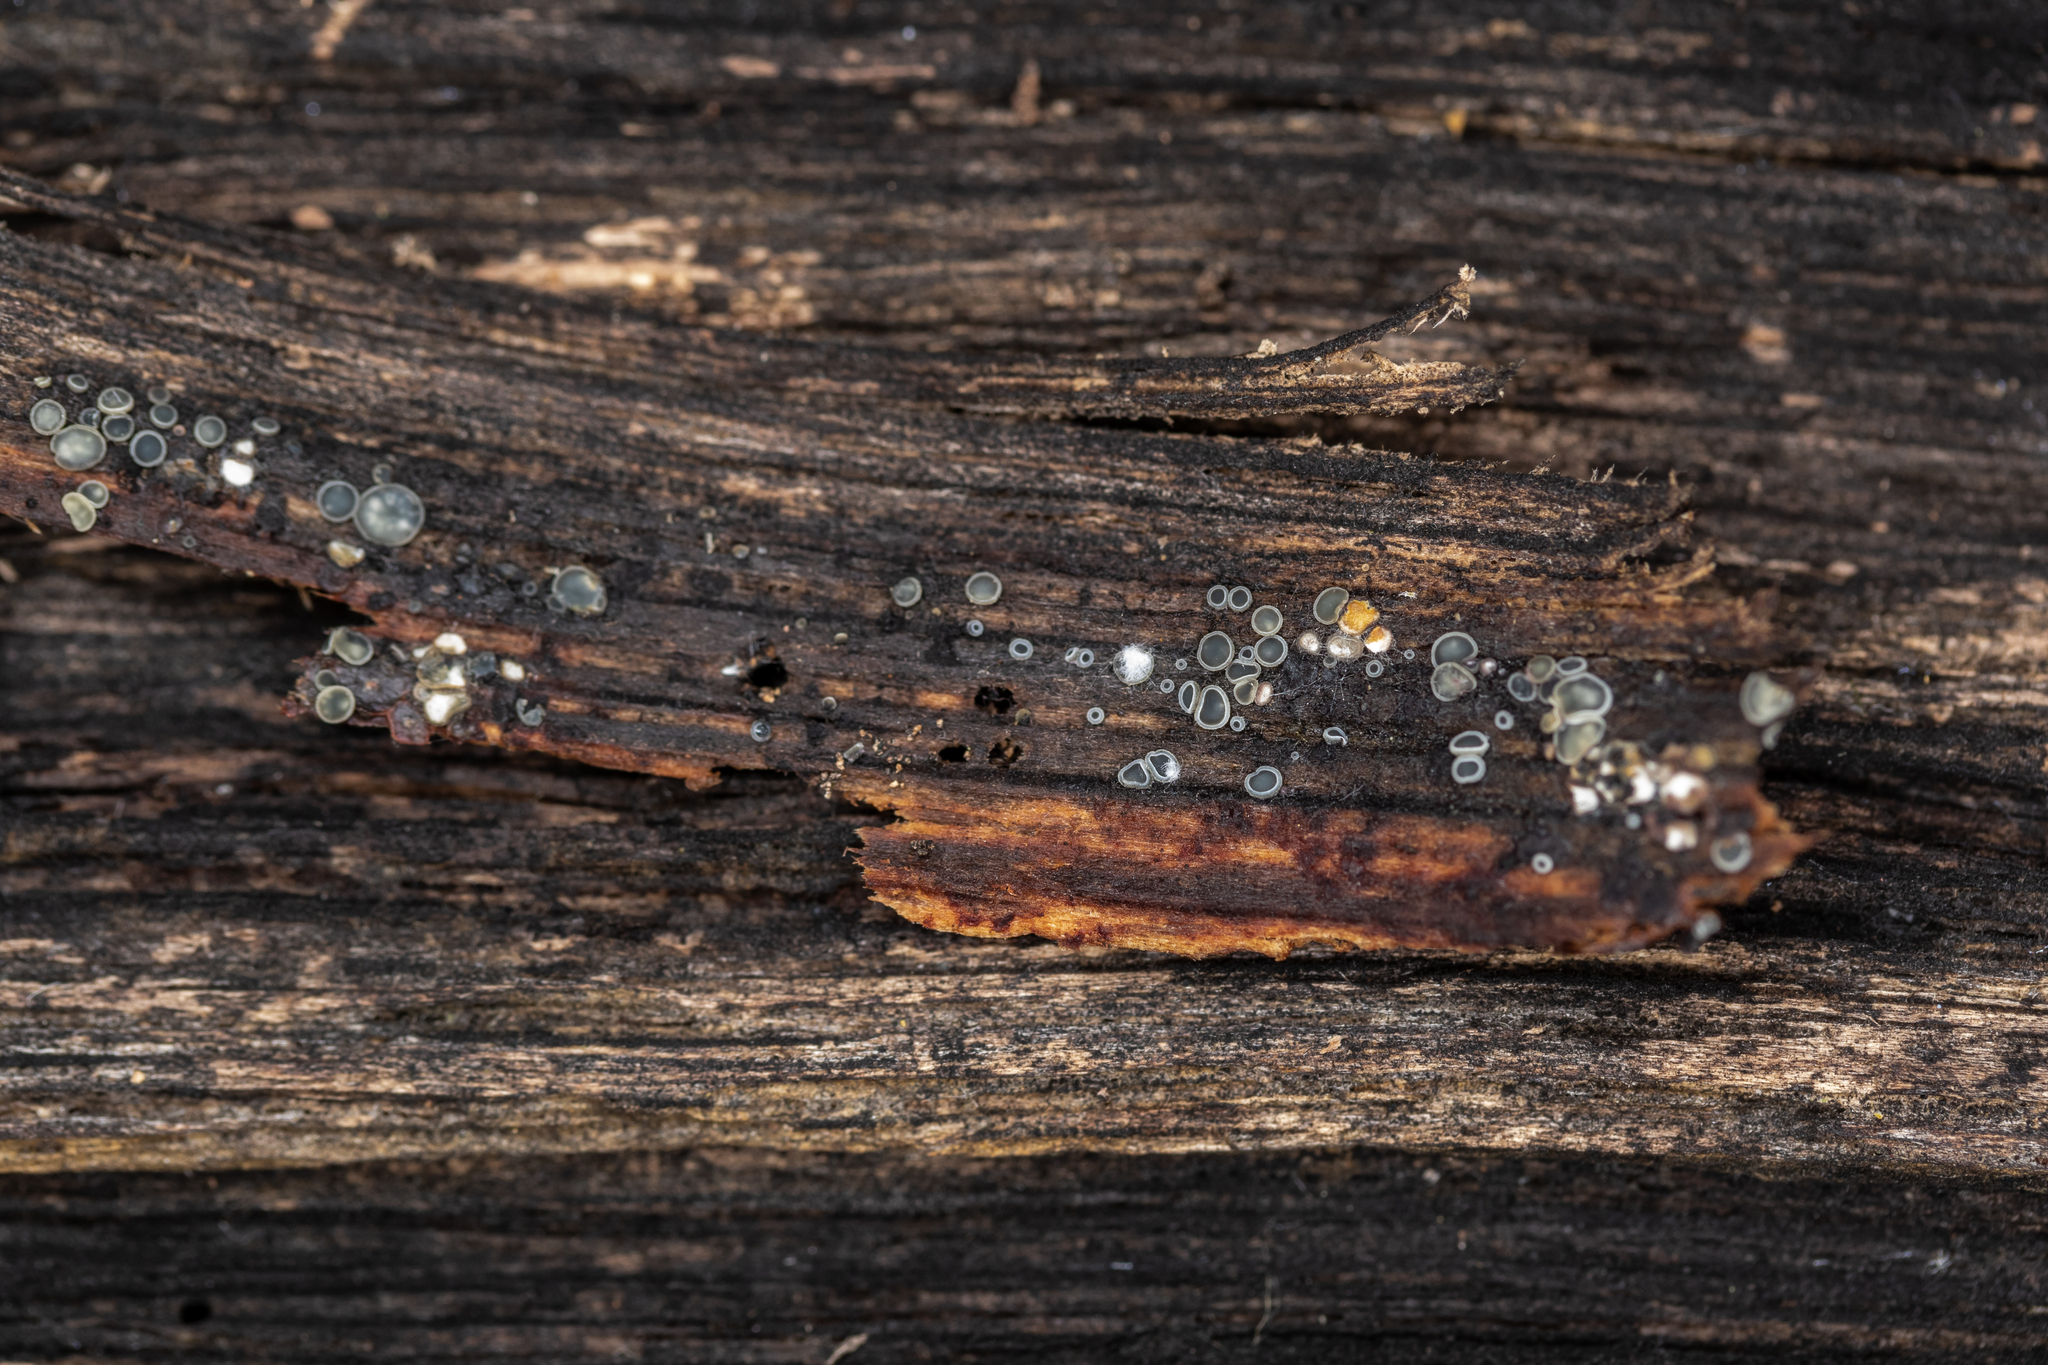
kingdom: Fungi
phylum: Ascomycota
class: Leotiomycetes
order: Helotiales
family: Mollisiaceae
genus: Mollisia
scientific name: Mollisia cinerea
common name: Common grey disco
